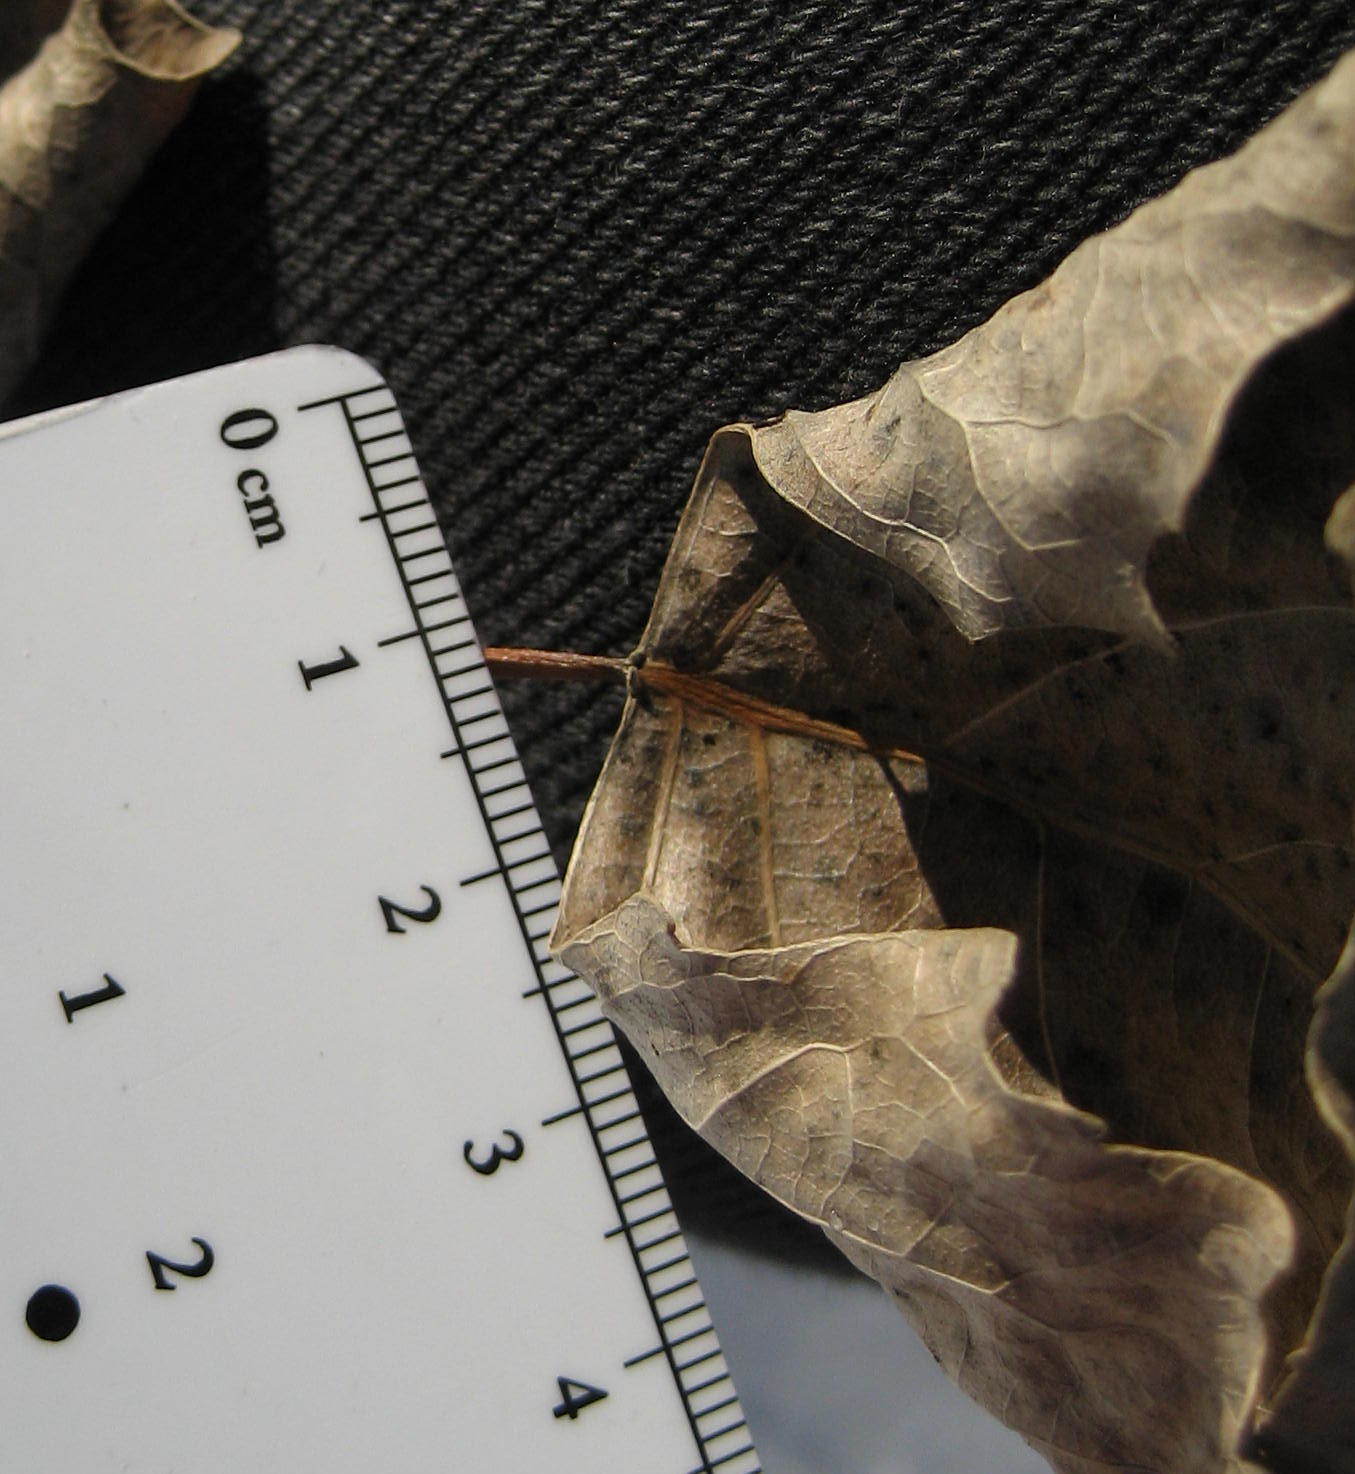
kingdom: Plantae
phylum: Tracheophyta
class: Magnoliopsida
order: Malpighiales
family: Salicaceae
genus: Populus
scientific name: Populus deltoides
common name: Eastern cottonwood
